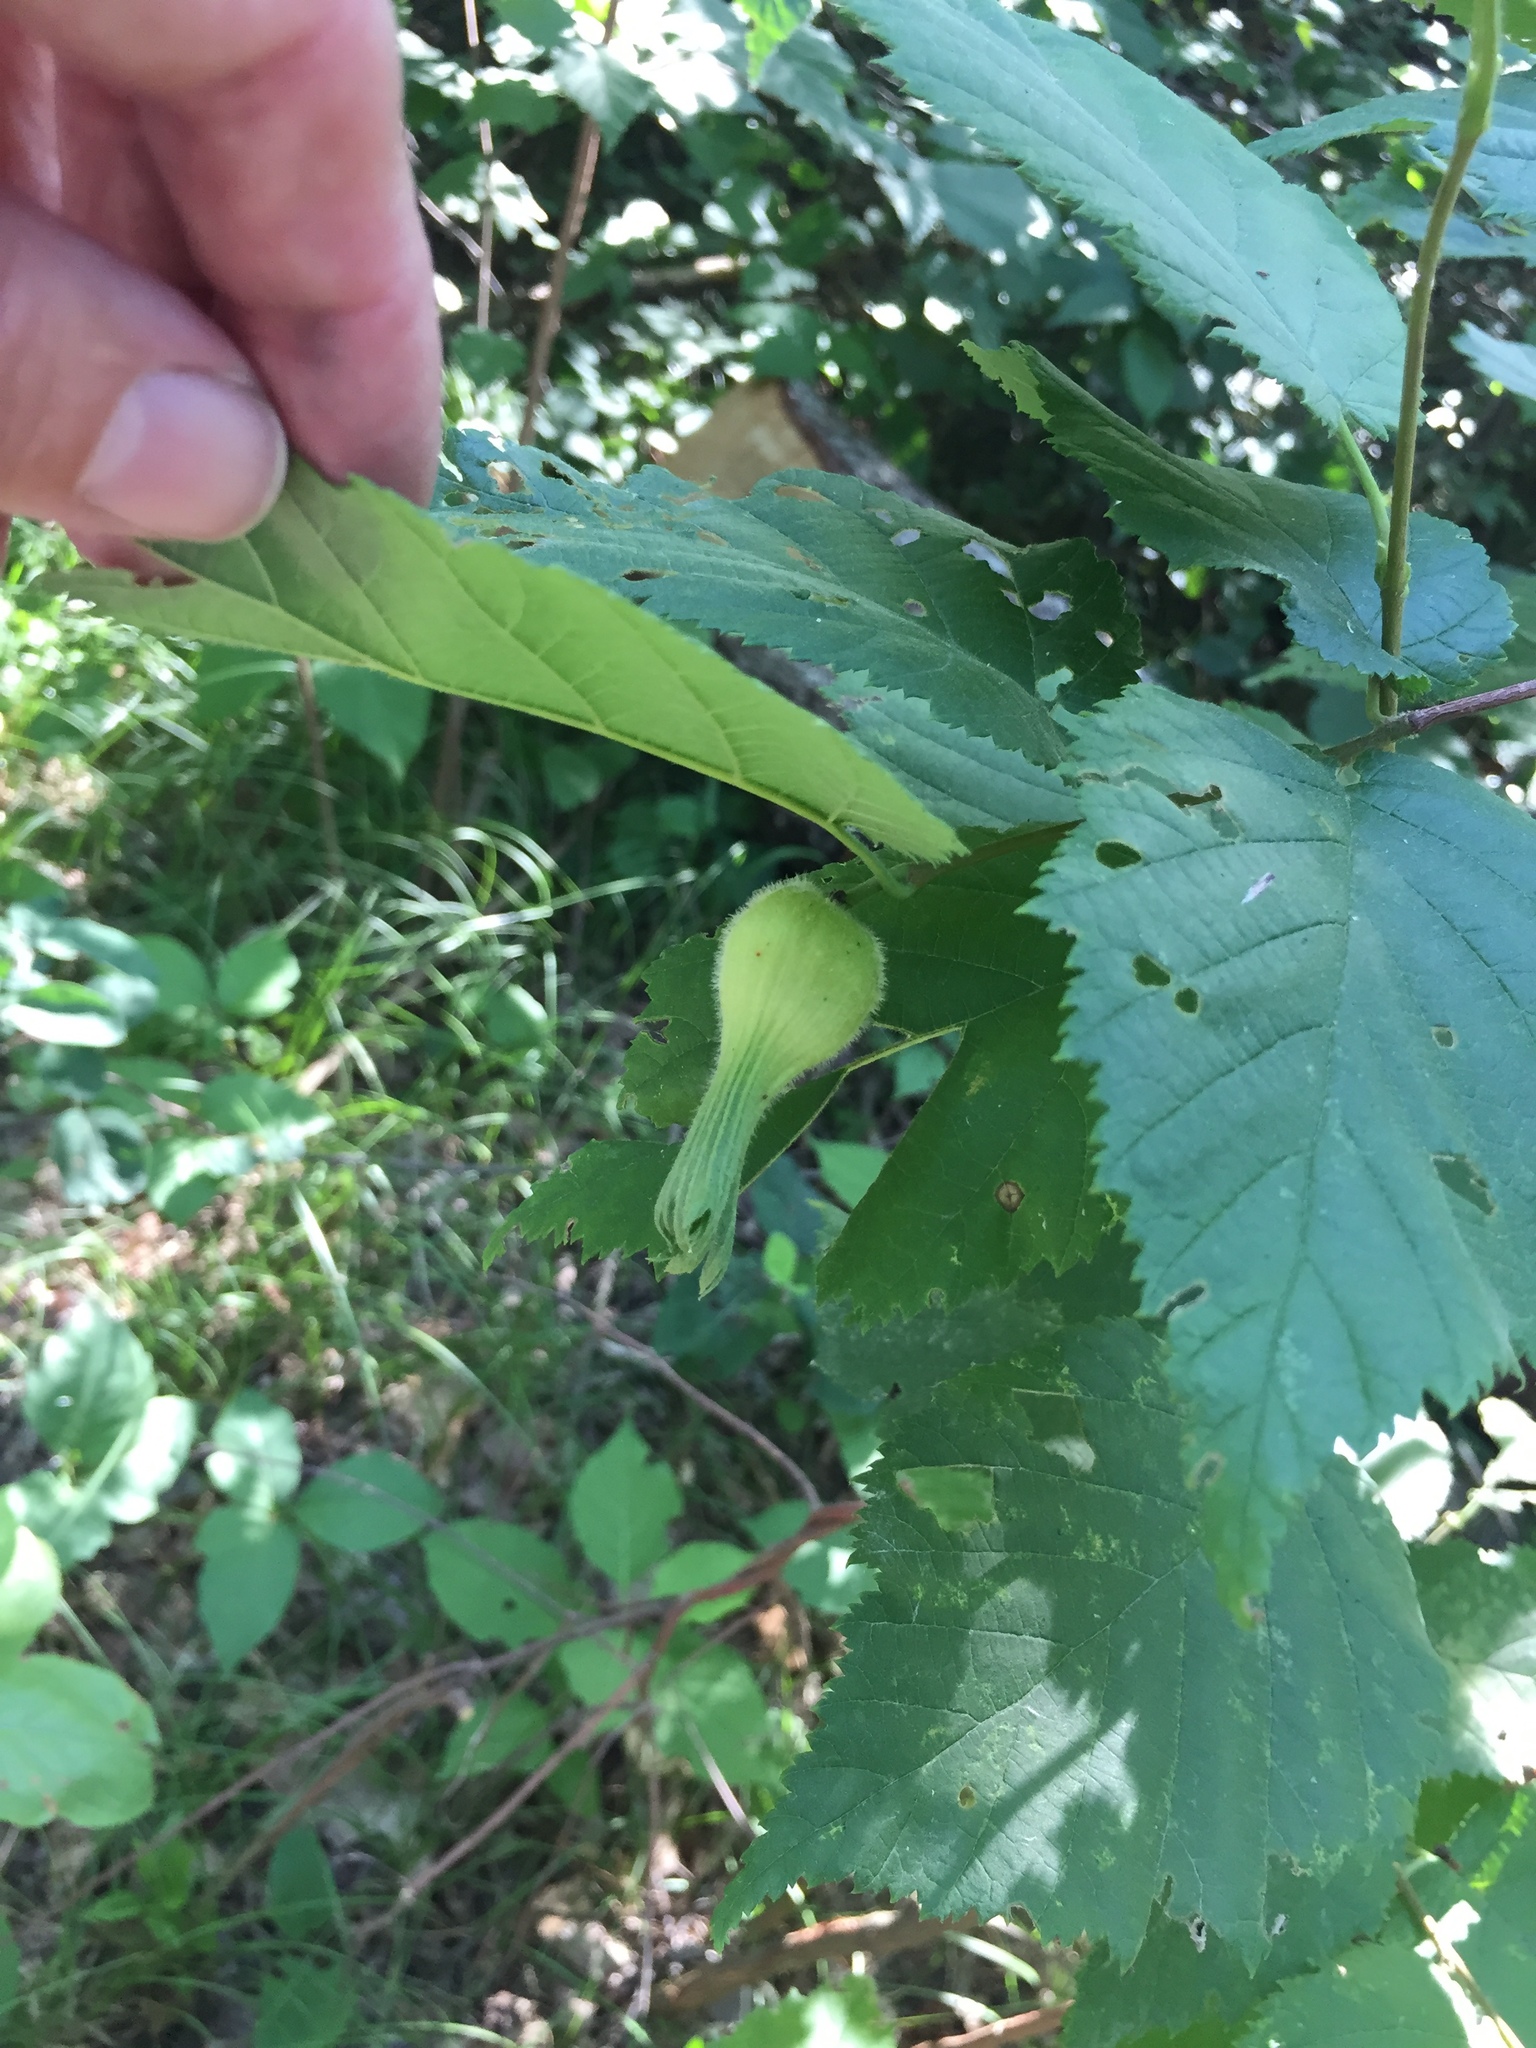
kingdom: Plantae
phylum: Tracheophyta
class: Magnoliopsida
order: Fagales
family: Betulaceae
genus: Corylus
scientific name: Corylus cornuta
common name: Beaked hazel
